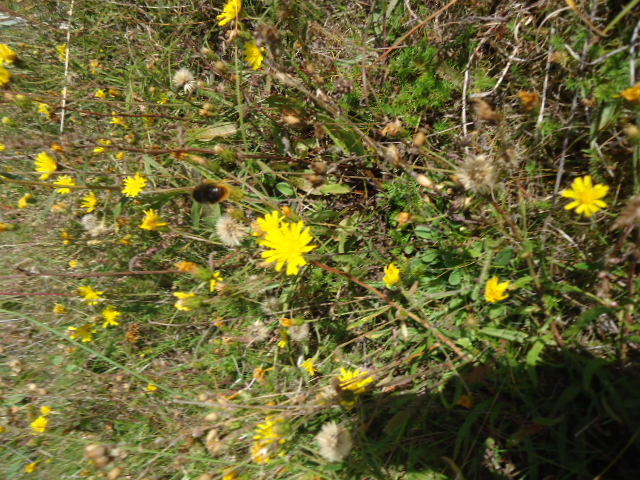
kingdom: Animalia
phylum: Arthropoda
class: Insecta
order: Hymenoptera
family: Apidae
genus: Bombus
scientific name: Bombus
